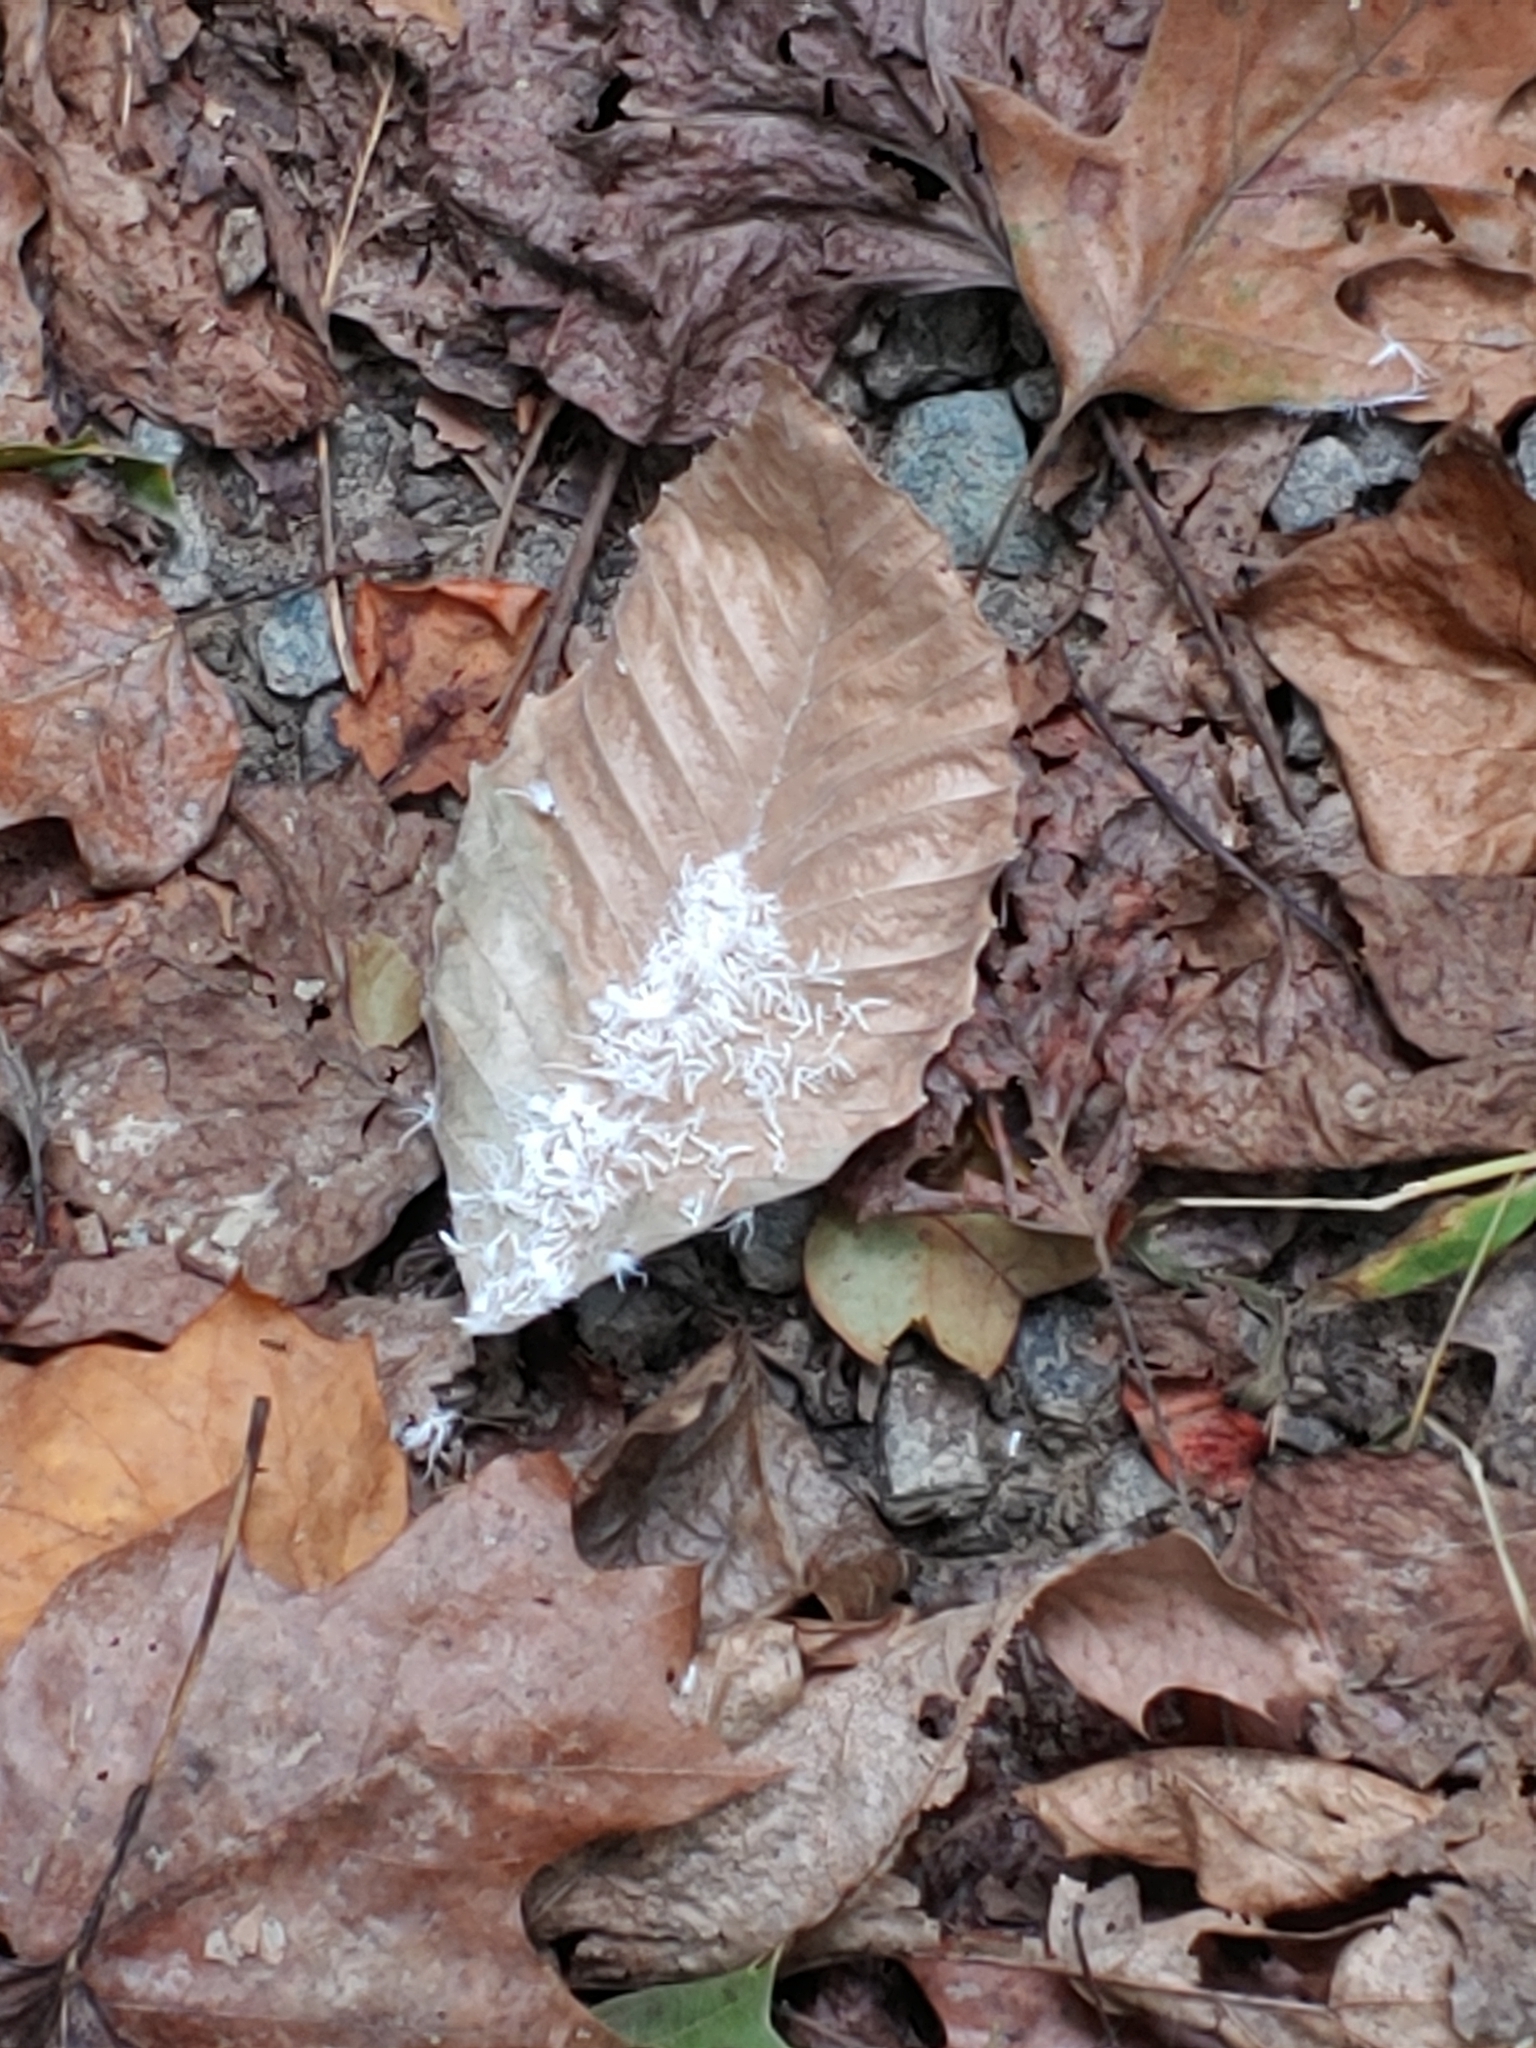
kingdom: Animalia
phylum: Arthropoda
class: Insecta
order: Hemiptera
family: Aphididae
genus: Grylloprociphilus
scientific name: Grylloprociphilus imbricator
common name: Beech blight aphid
